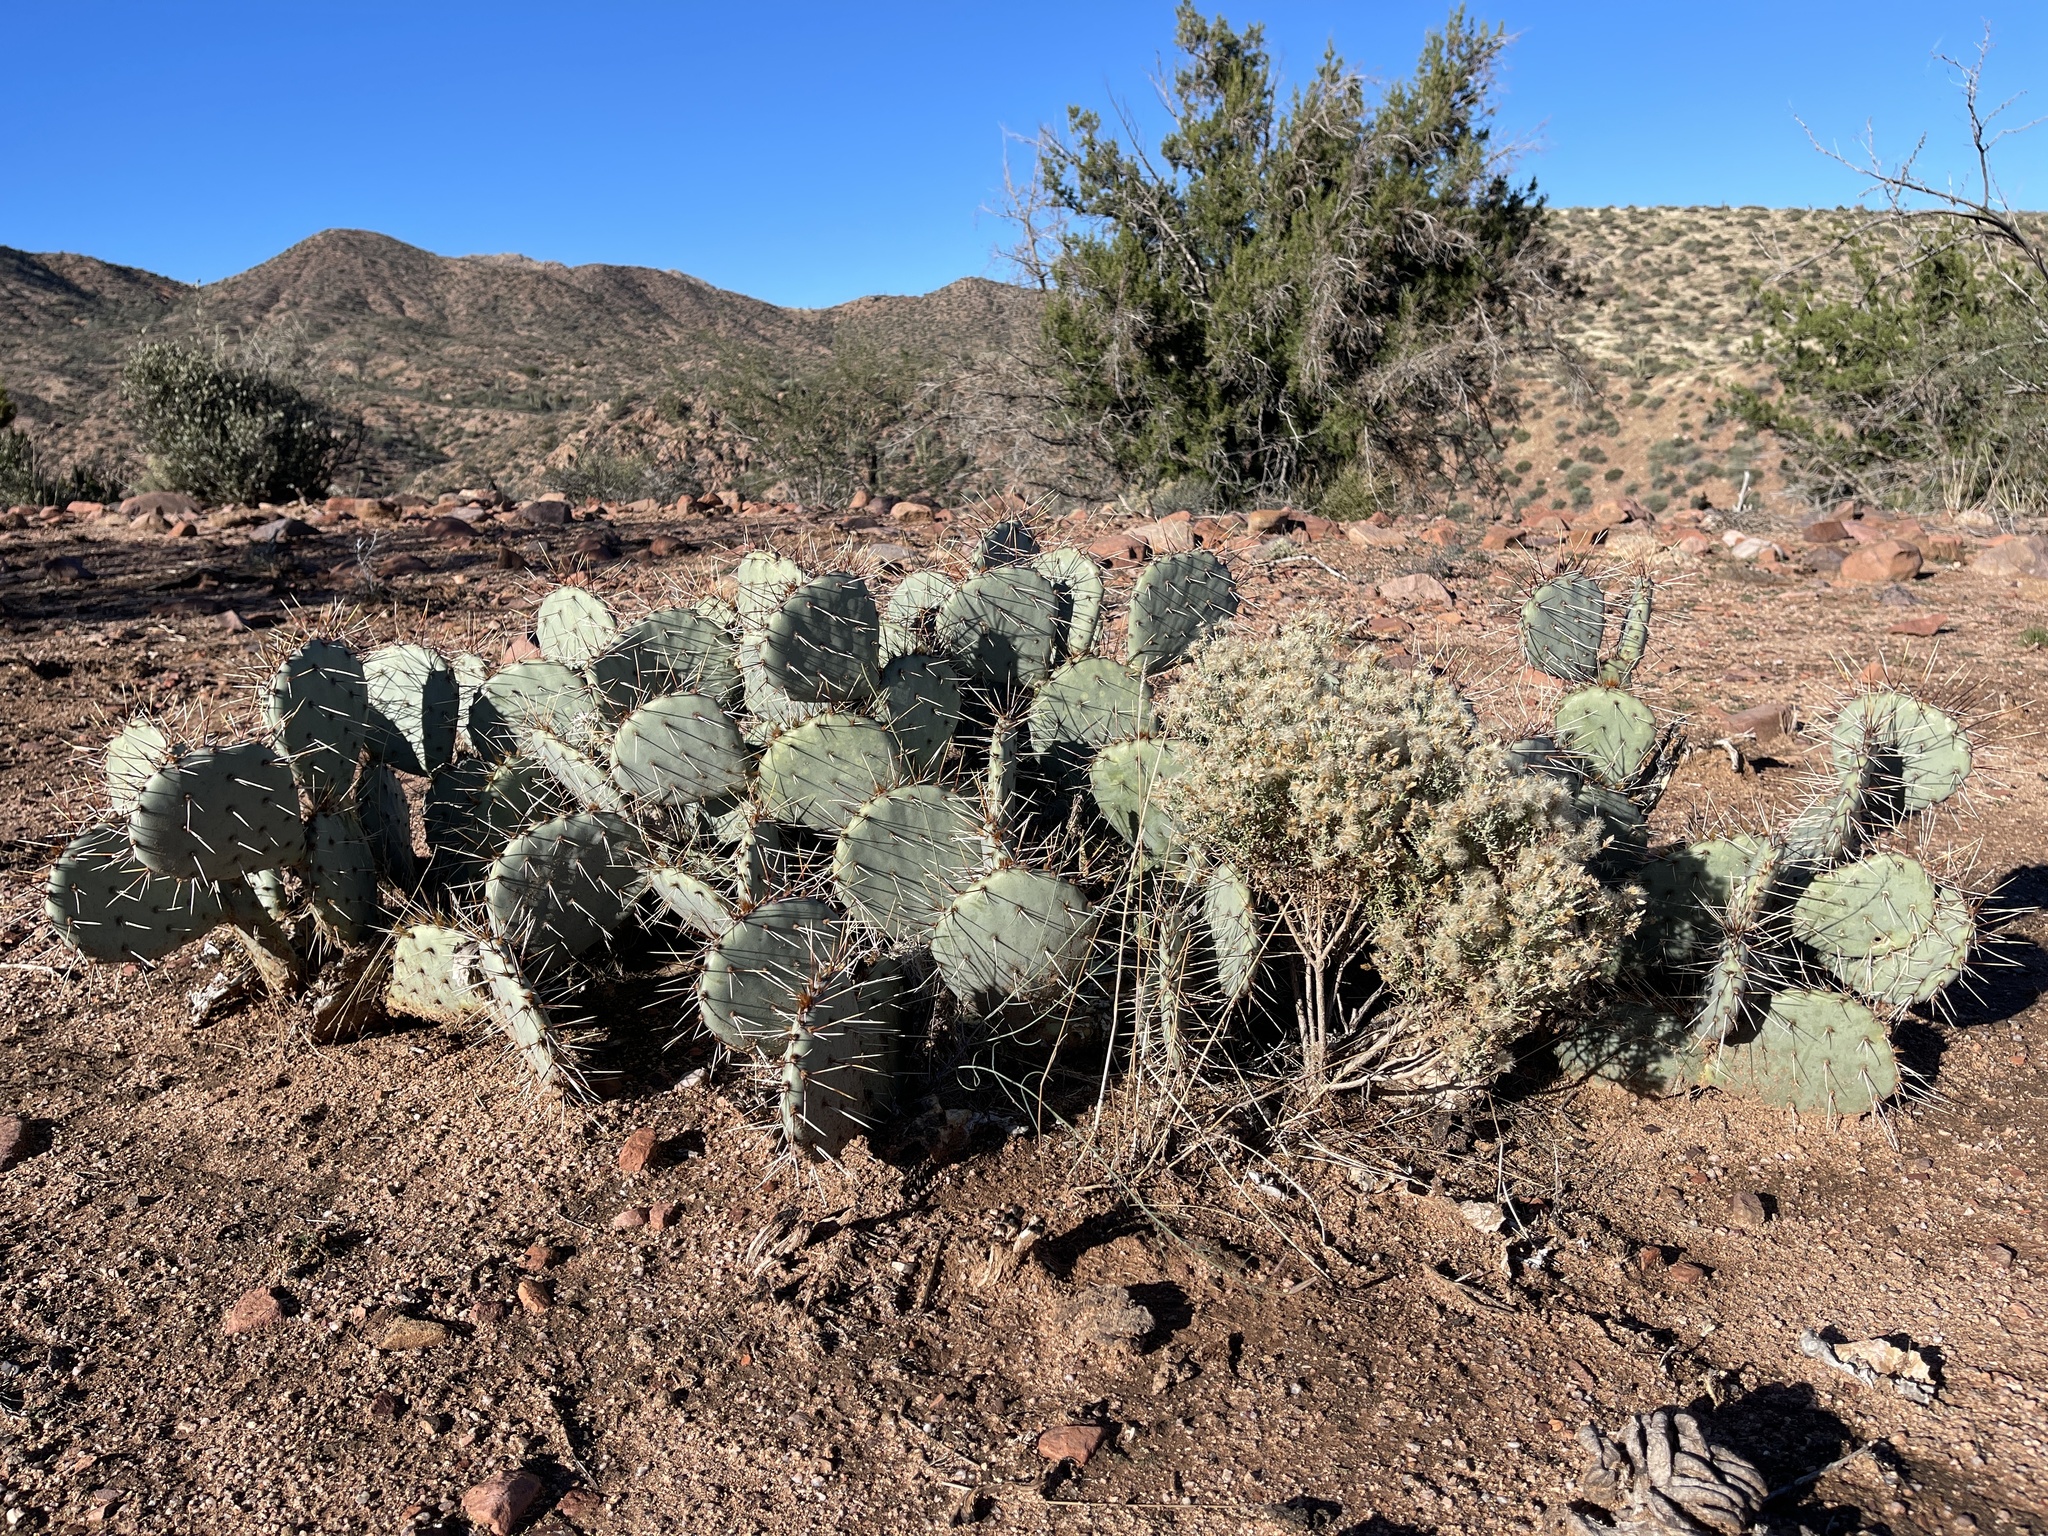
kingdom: Plantae
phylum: Tracheophyta
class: Magnoliopsida
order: Caryophyllales
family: Cactaceae
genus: Opuntia
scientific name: Opuntia phaeacantha
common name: New mexico prickly-pear
